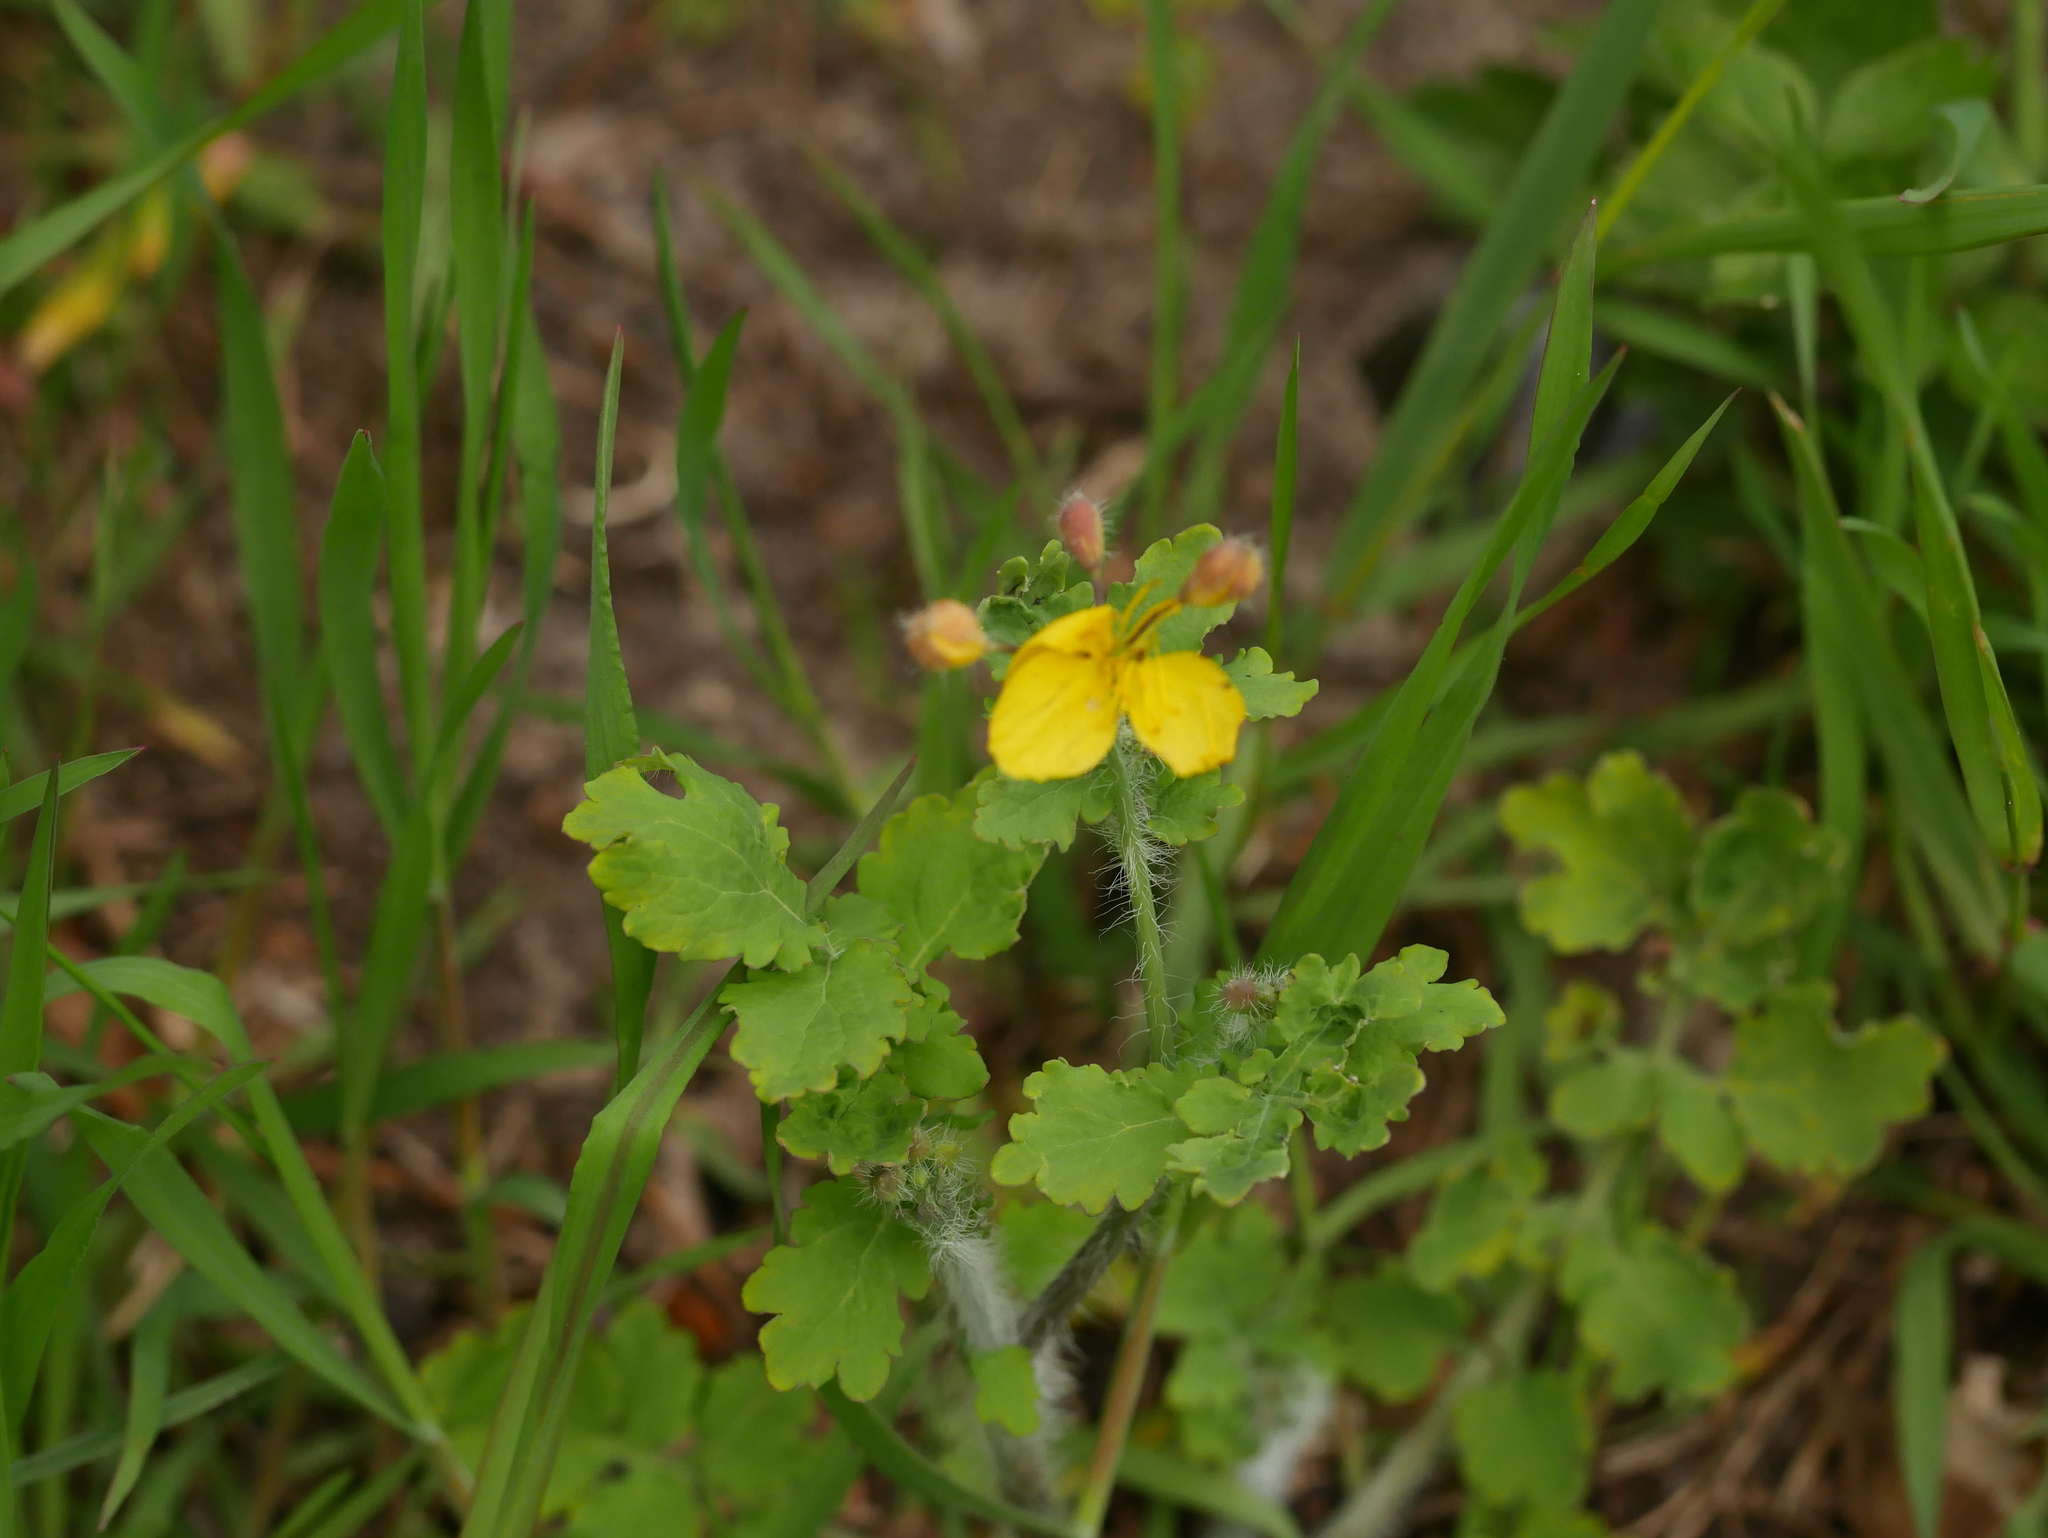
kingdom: Plantae
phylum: Tracheophyta
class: Magnoliopsida
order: Ranunculales
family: Papaveraceae
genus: Chelidonium
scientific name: Chelidonium majus
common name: Greater celandine
